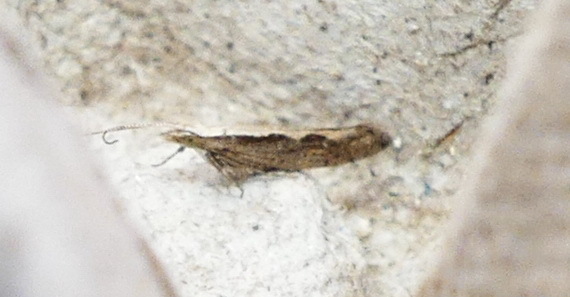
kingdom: Animalia
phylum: Arthropoda
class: Insecta
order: Lepidoptera
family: Plutellidae
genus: Plutella
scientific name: Plutella xylostella
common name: Diamond-back moth
